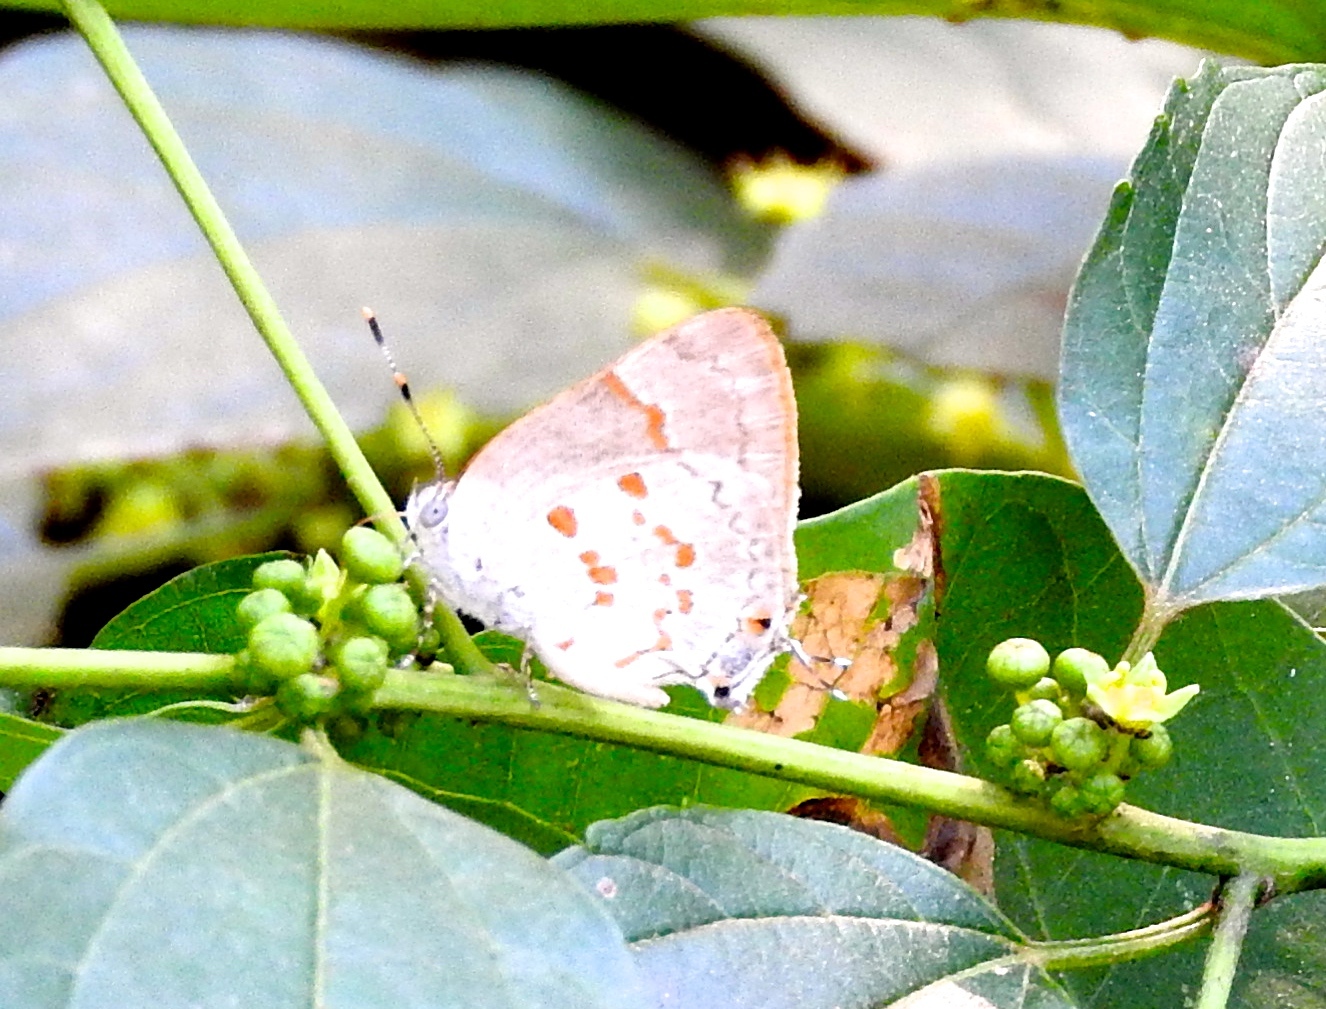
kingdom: Animalia
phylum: Arthropoda
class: Insecta
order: Lepidoptera
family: Lycaenidae
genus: Tmolus
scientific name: Tmolus echion
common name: Red-spotted hairstreak
